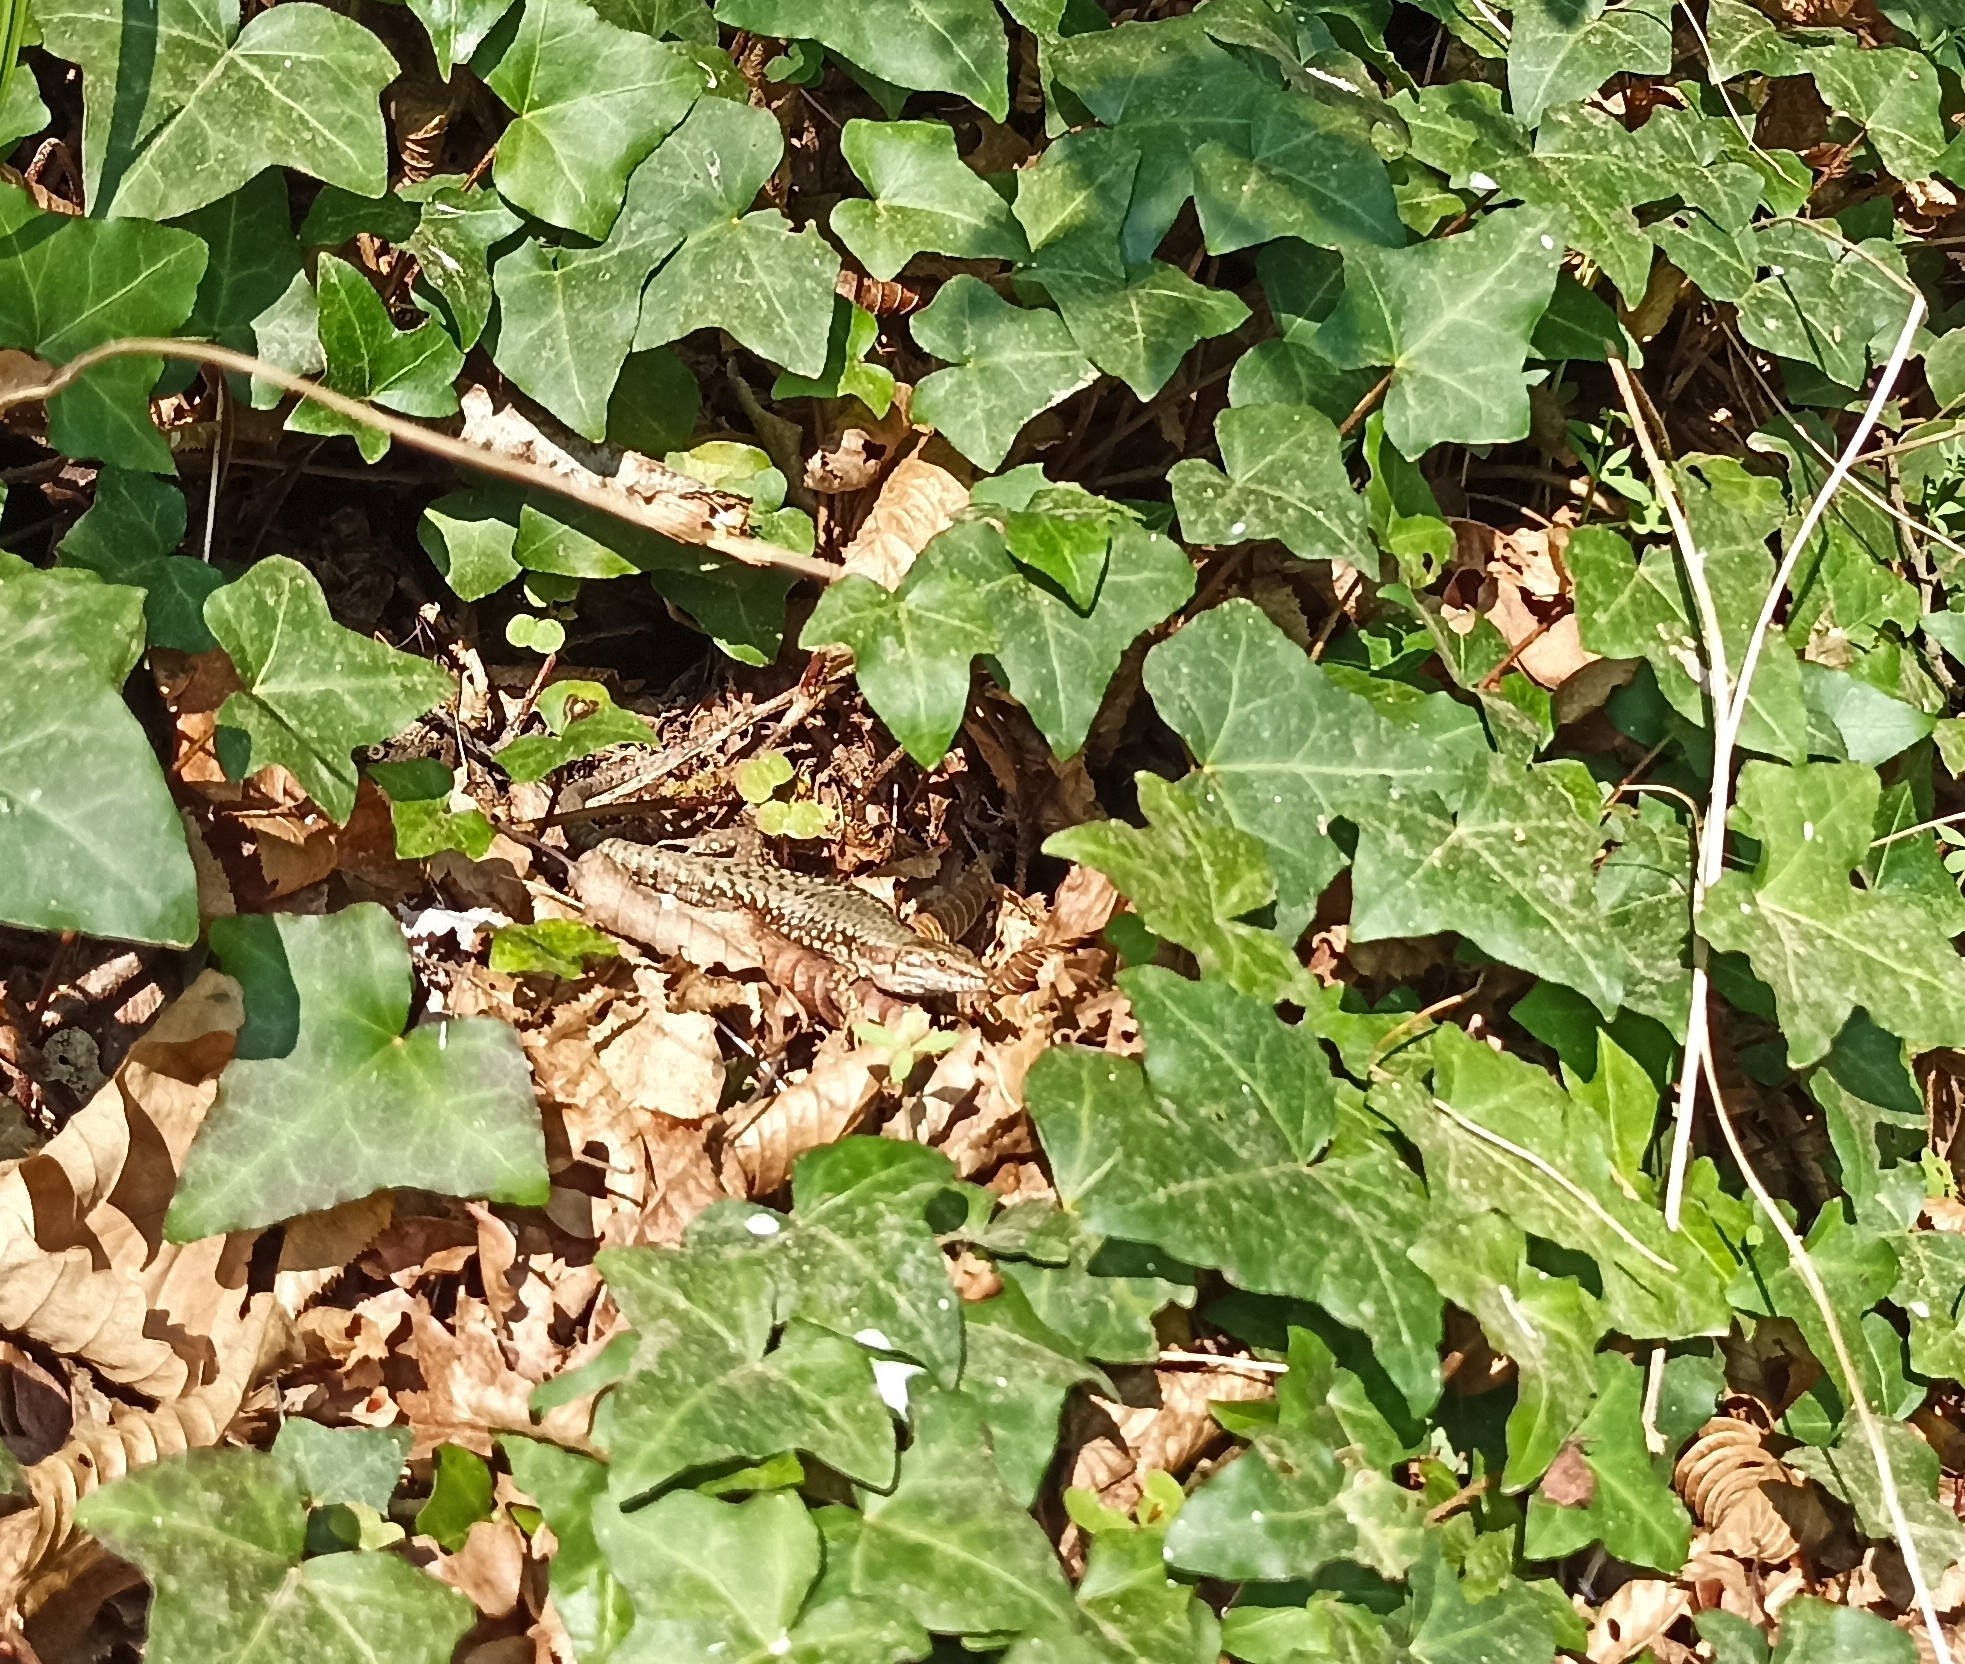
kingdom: Animalia
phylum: Chordata
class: Squamata
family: Lacertidae
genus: Podarcis
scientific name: Podarcis muralis
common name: Common wall lizard
